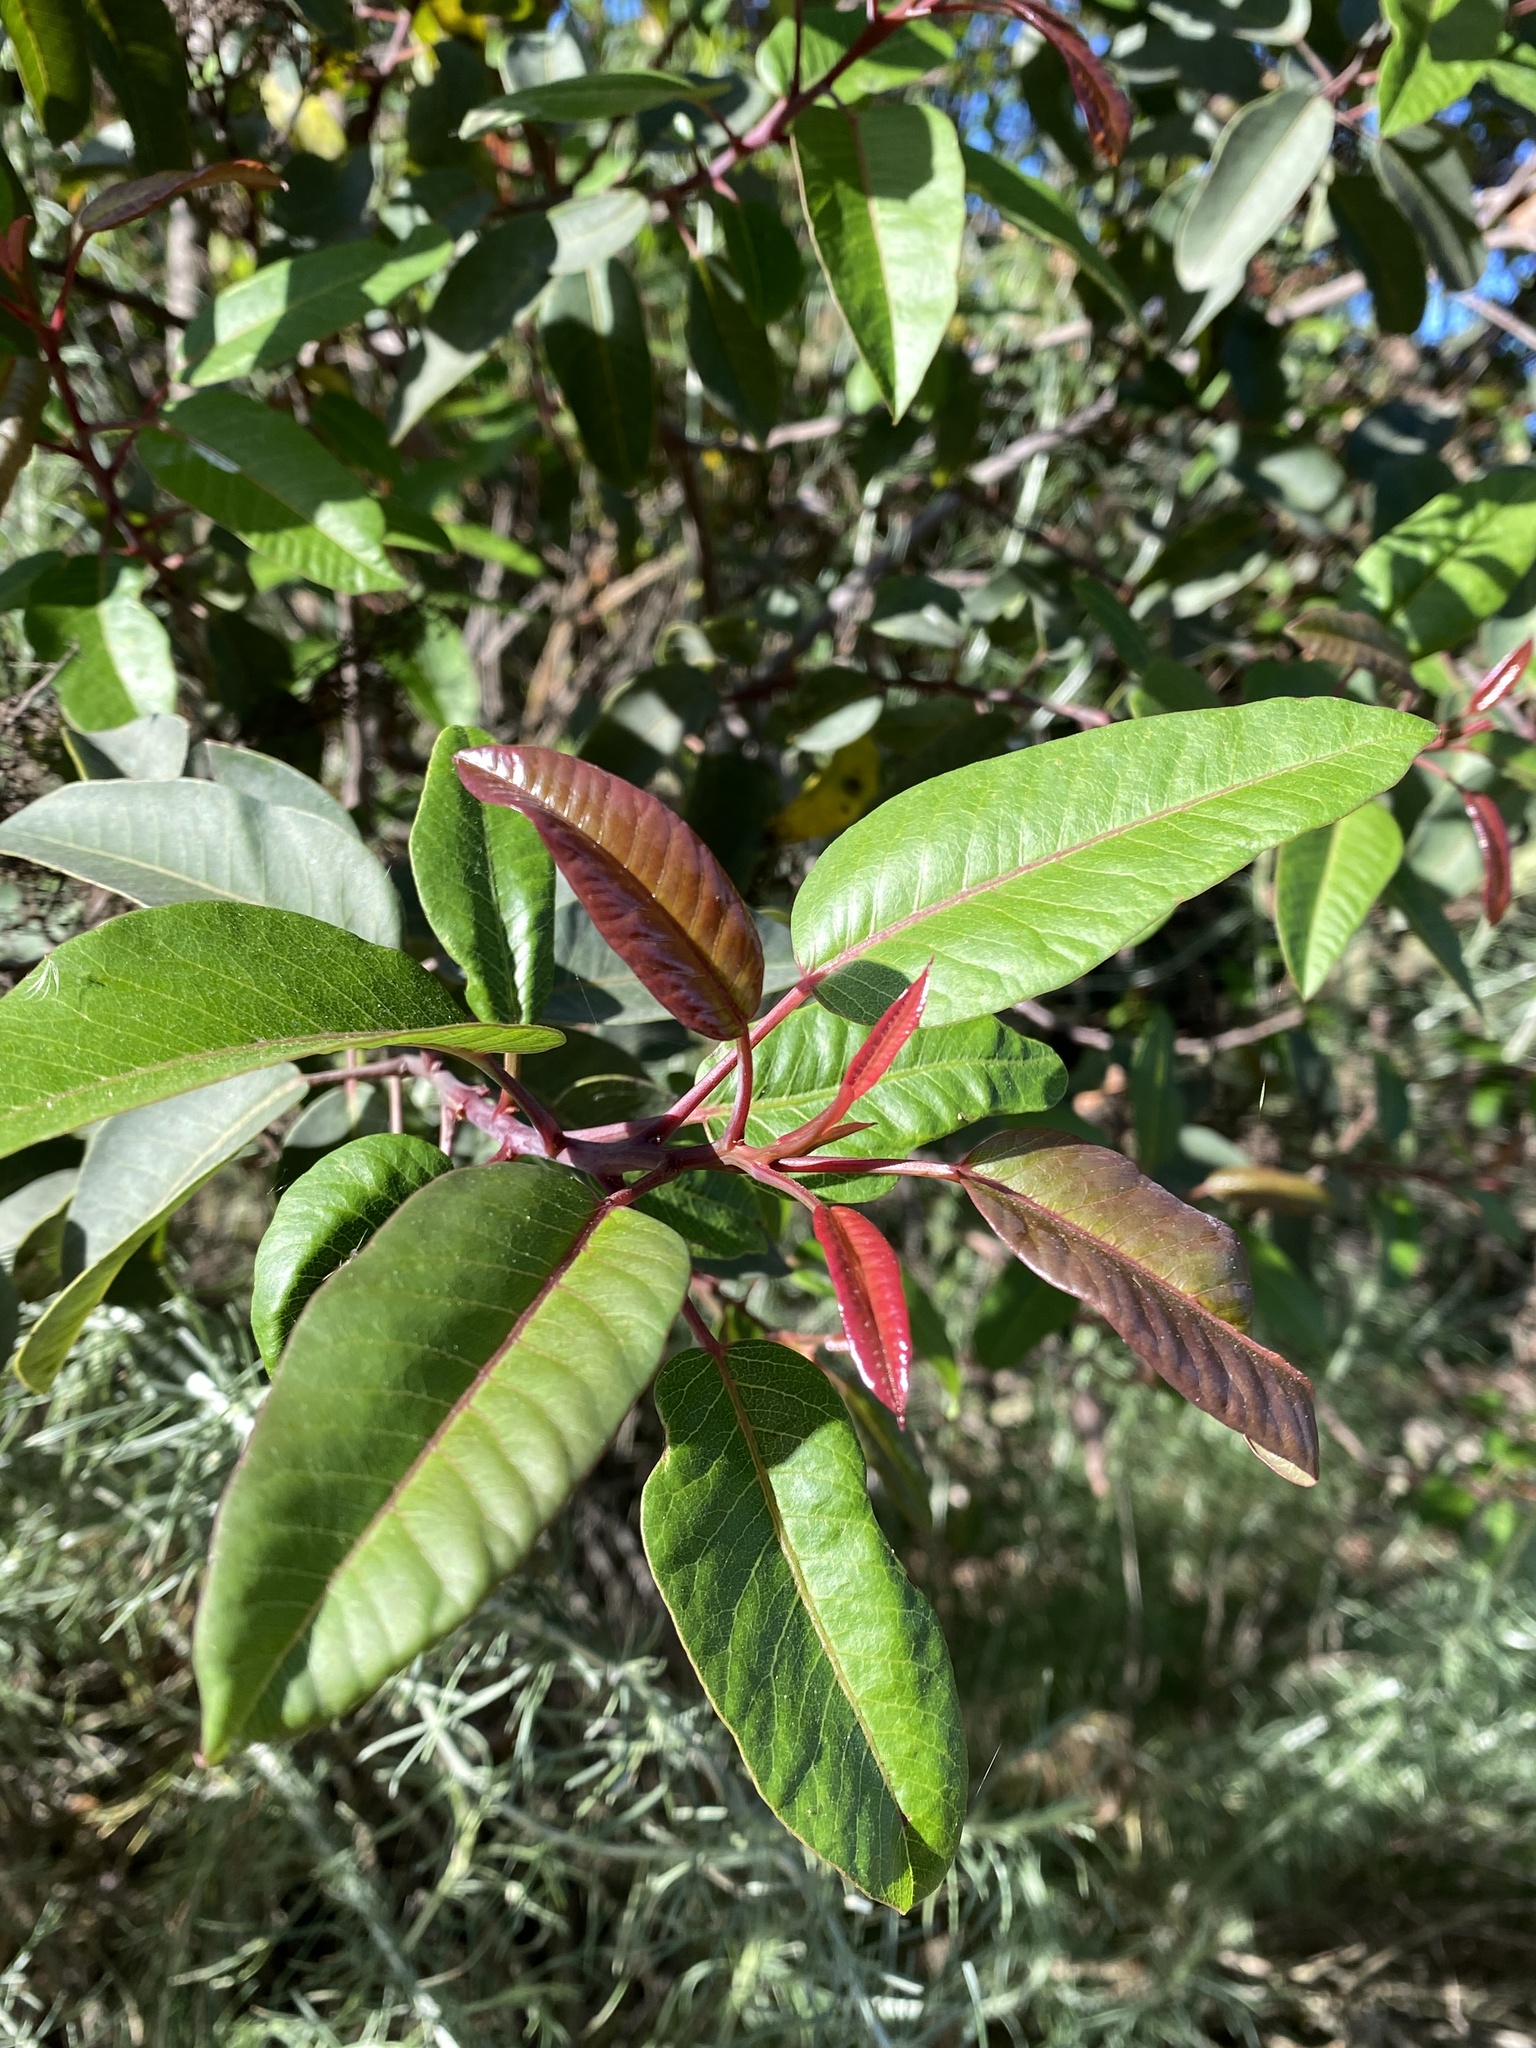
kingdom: Plantae
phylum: Tracheophyta
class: Magnoliopsida
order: Sapindales
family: Anacardiaceae
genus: Malosma
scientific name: Malosma laurina
